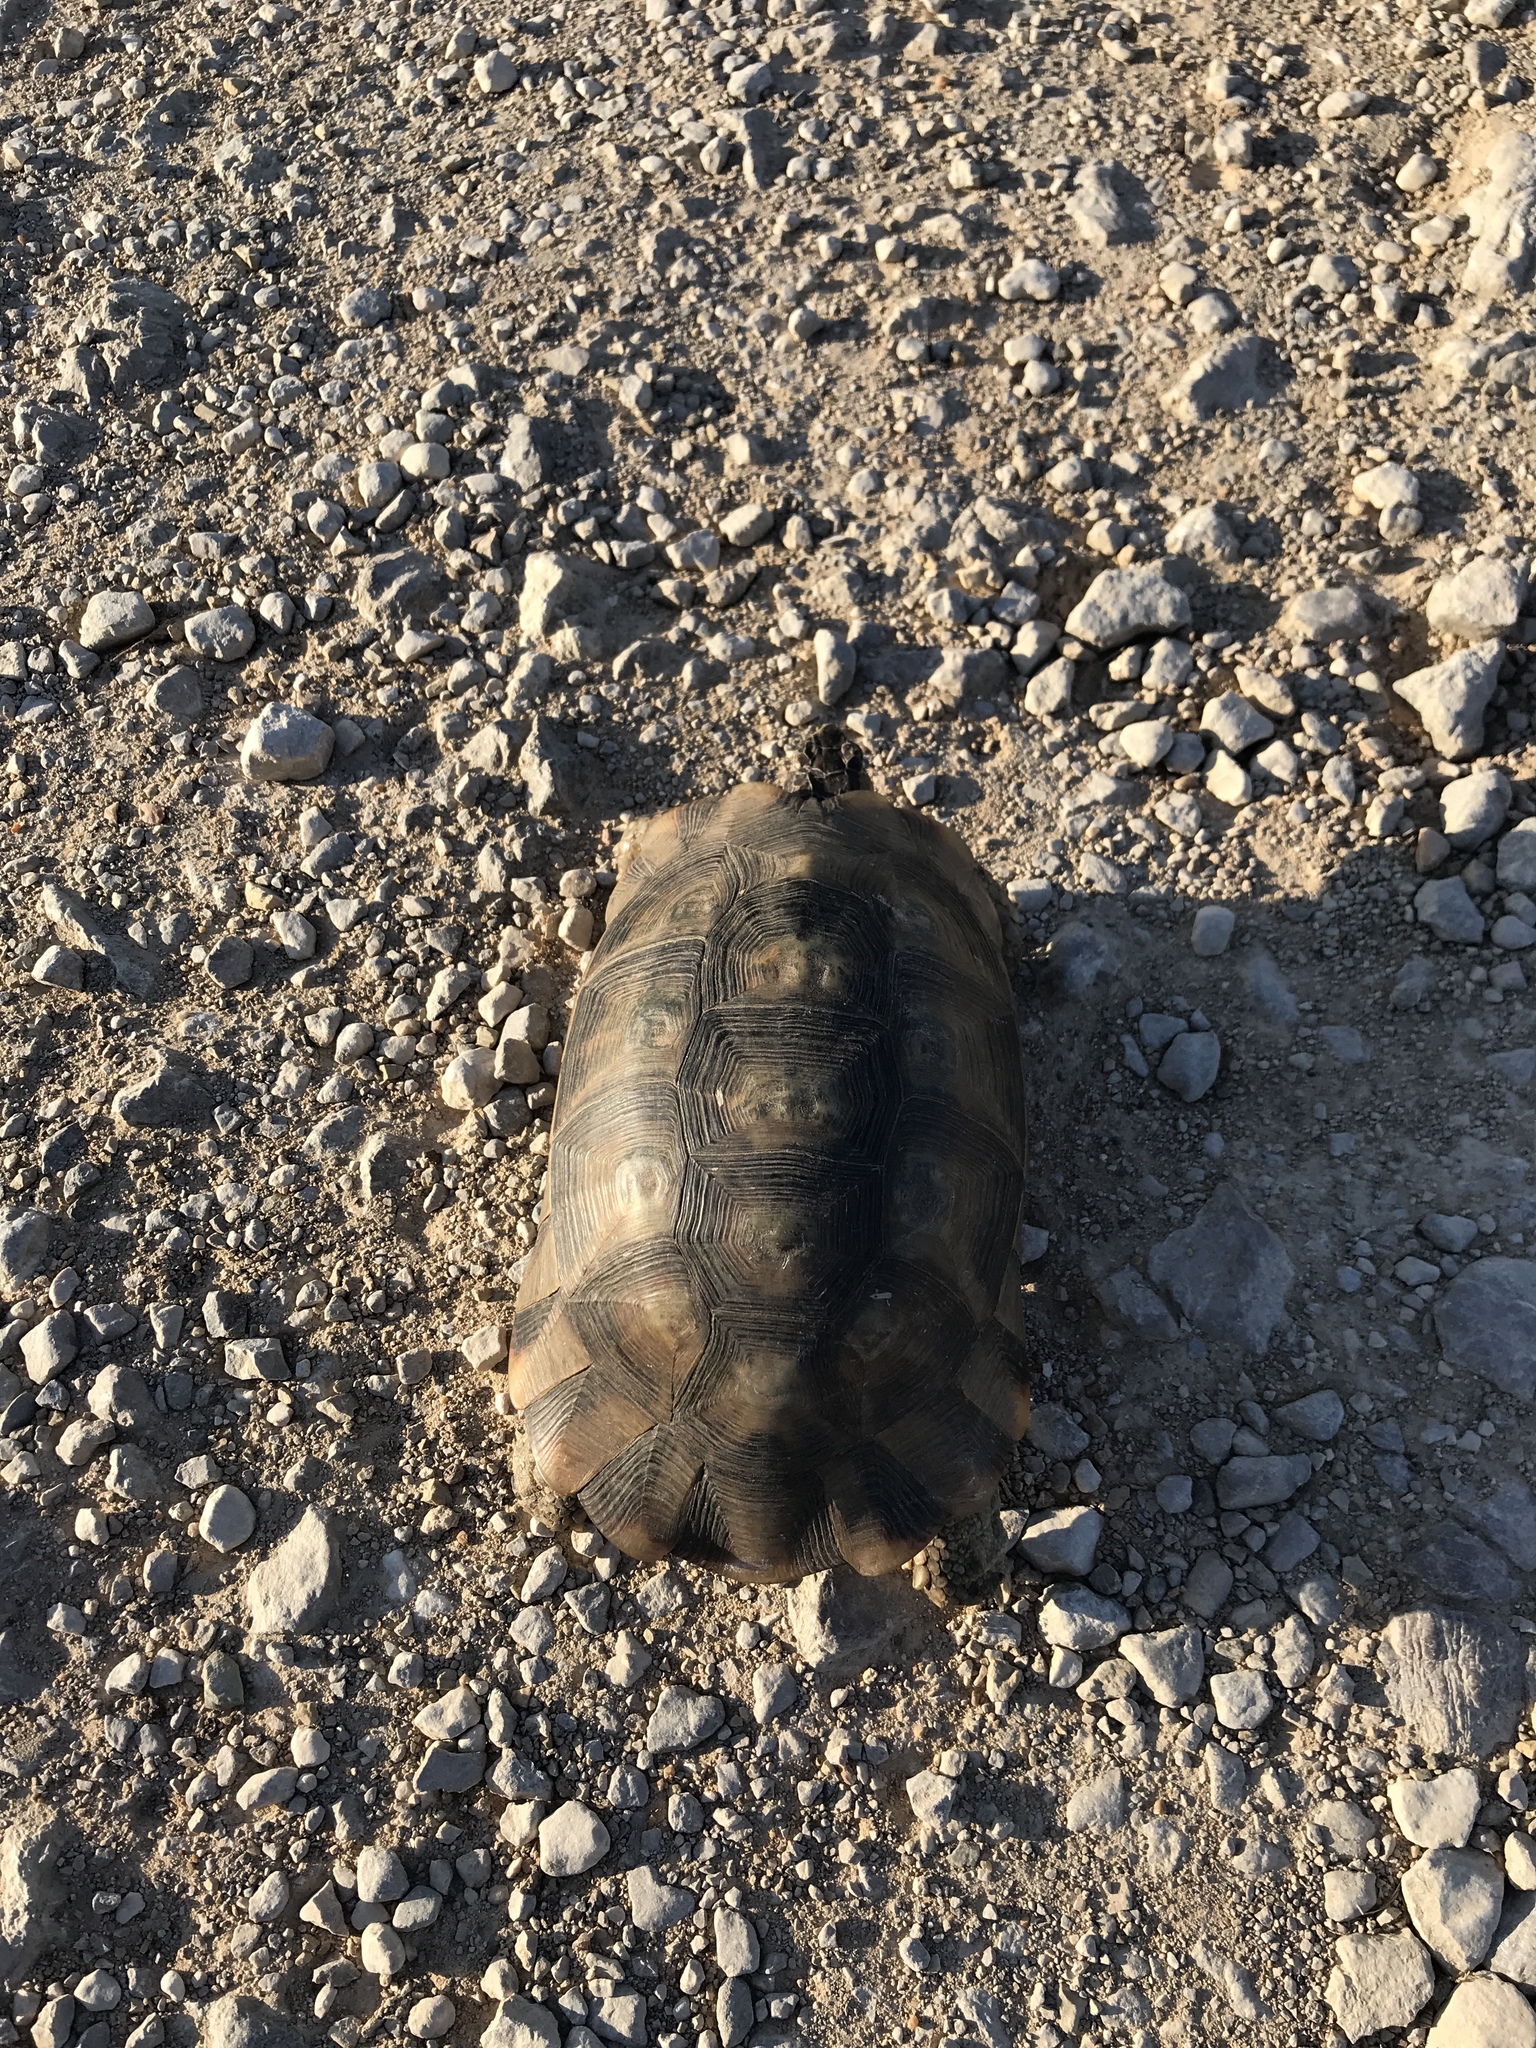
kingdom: Animalia
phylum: Chordata
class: Testudines
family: Testudinidae
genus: Testudo
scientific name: Testudo marginata
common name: Marginated tortoise
